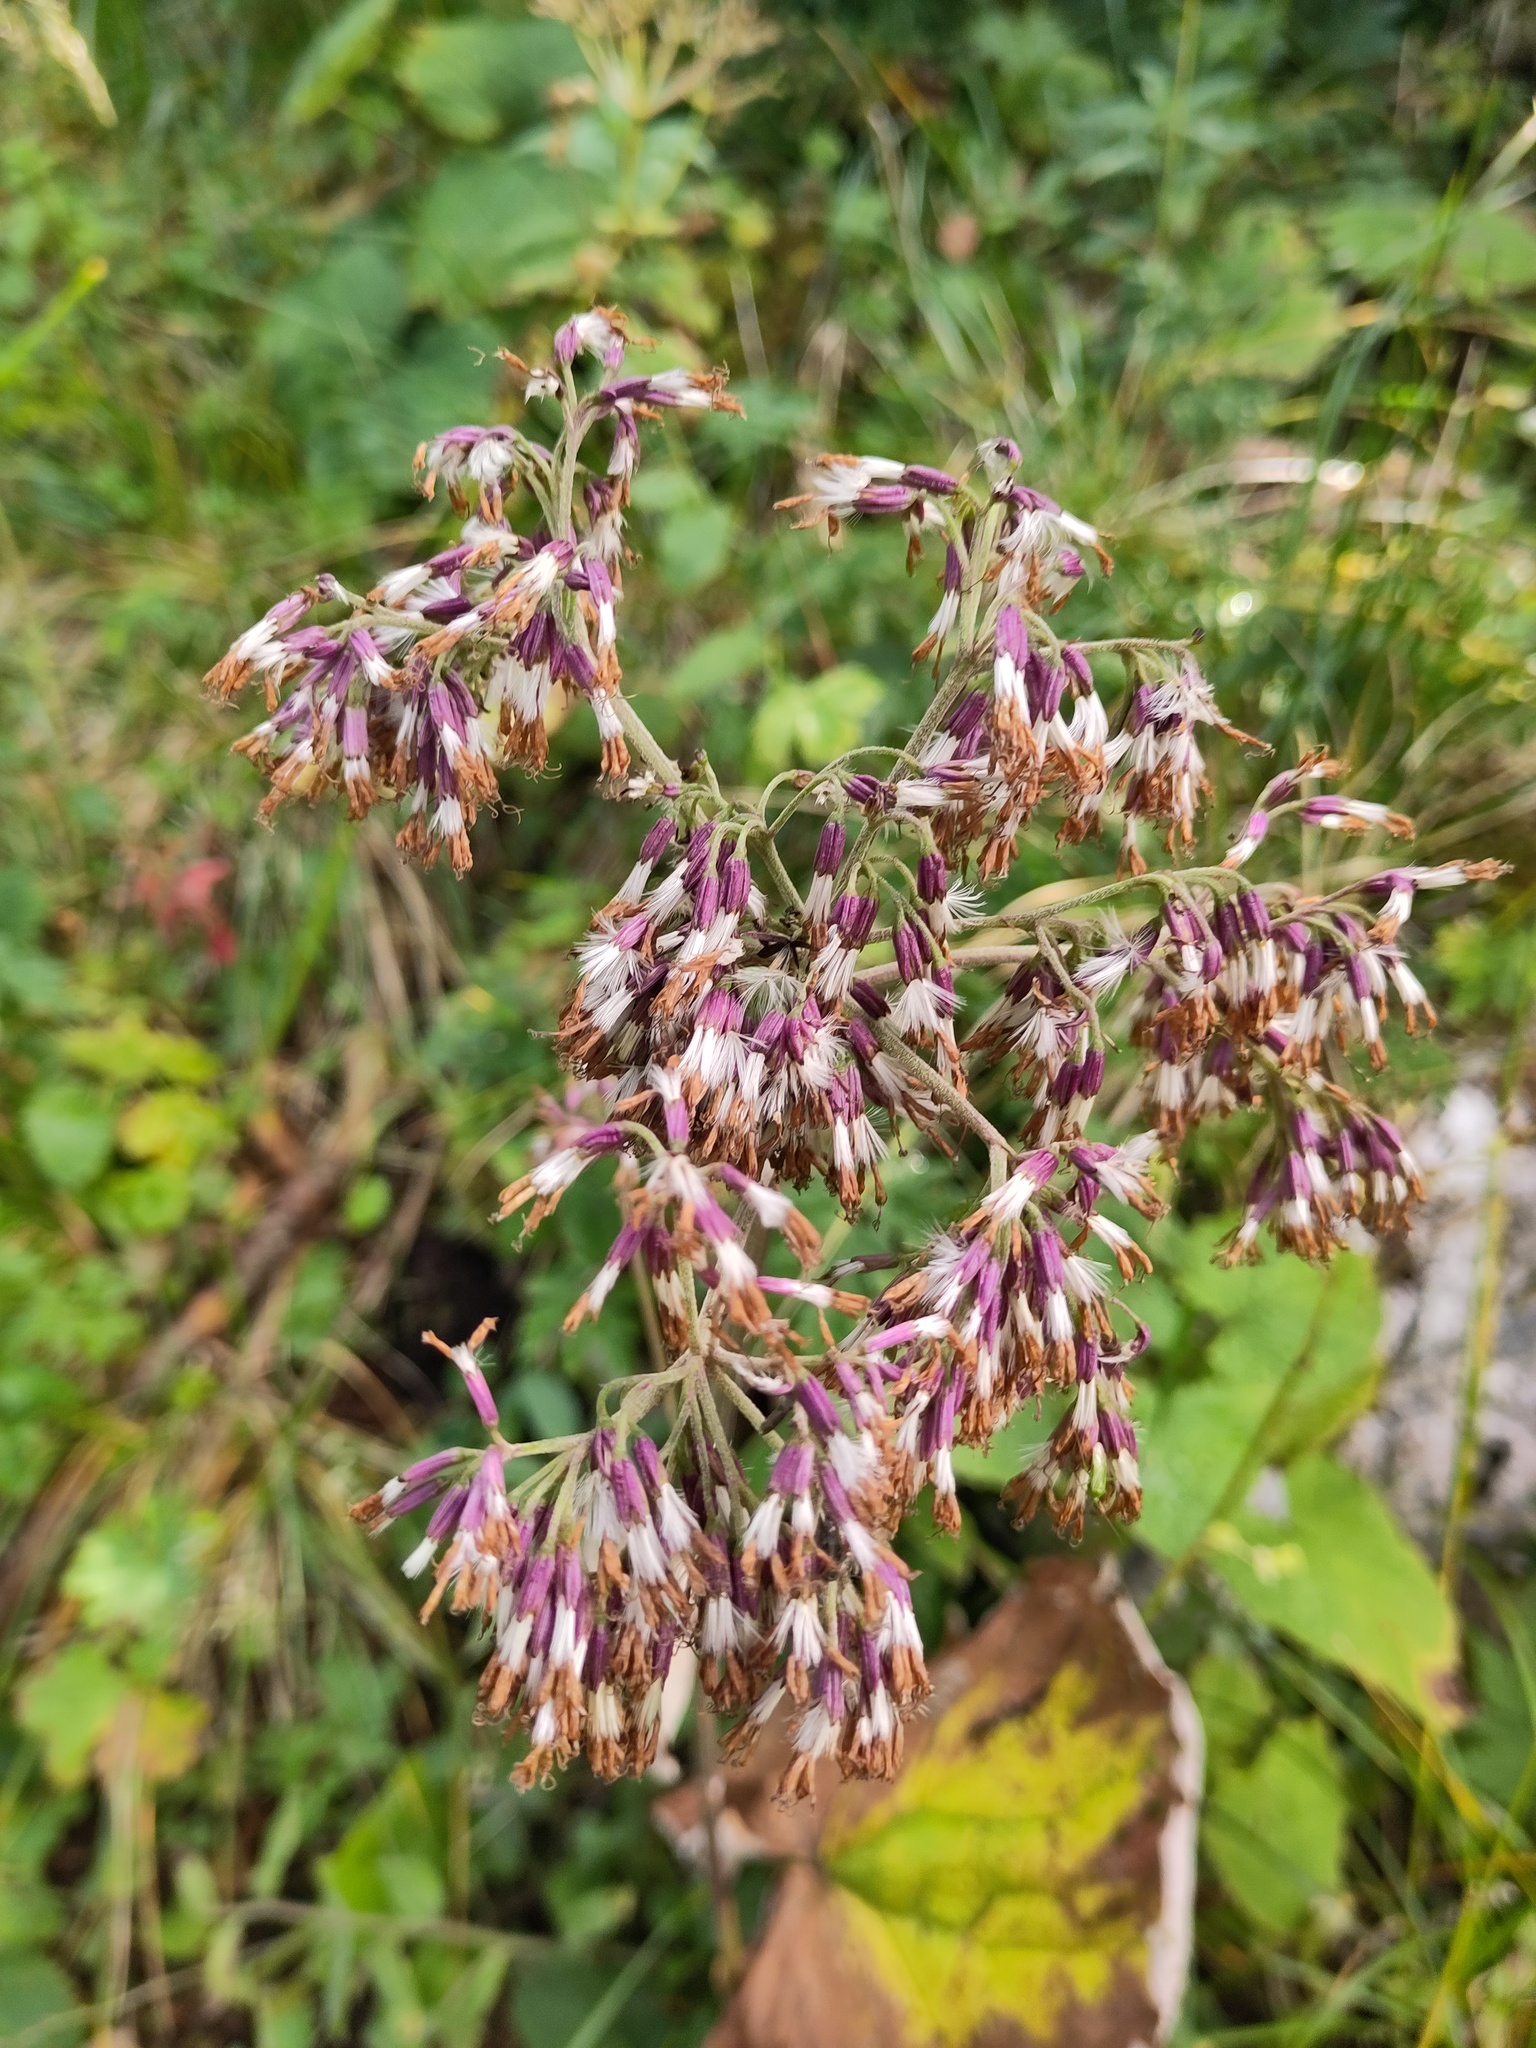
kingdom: Plantae
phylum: Tracheophyta
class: Magnoliopsida
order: Asterales
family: Asteraceae
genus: Adenostyles
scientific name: Adenostyles alliariae
